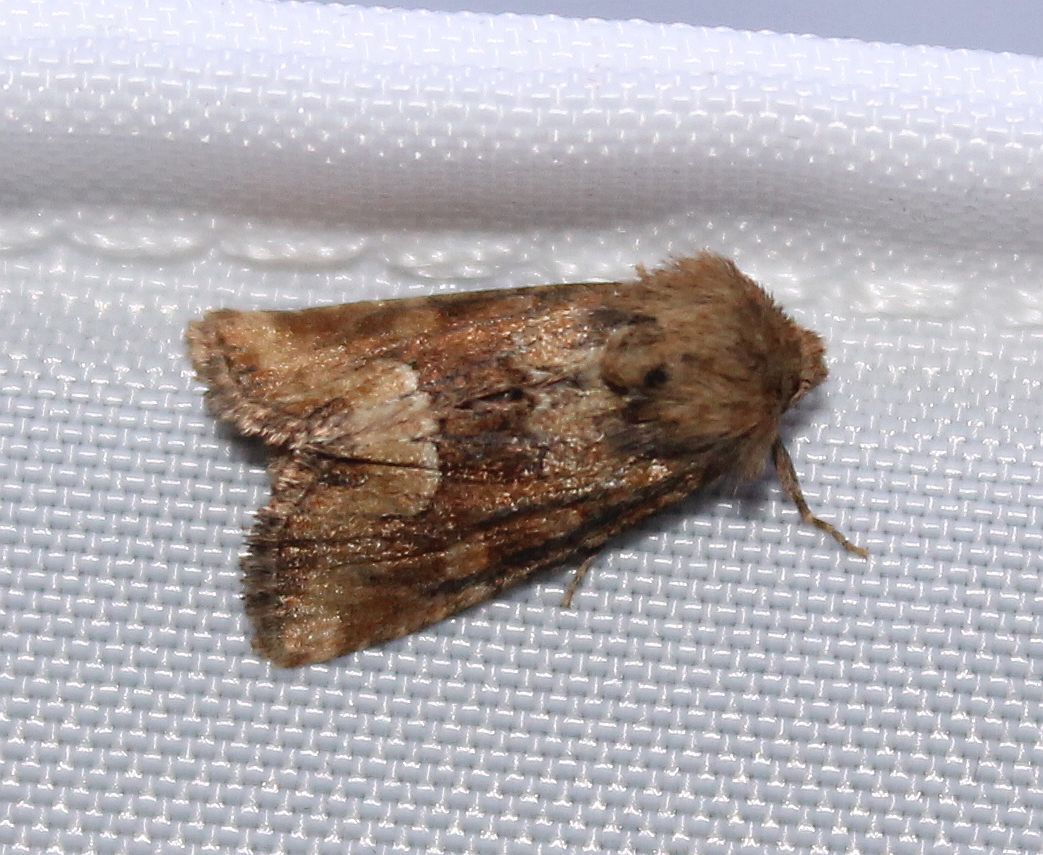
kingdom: Animalia
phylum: Arthropoda
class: Insecta
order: Lepidoptera
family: Noctuidae
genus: Oligia
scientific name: Oligia fasciuncula
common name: Middle-barred minor
